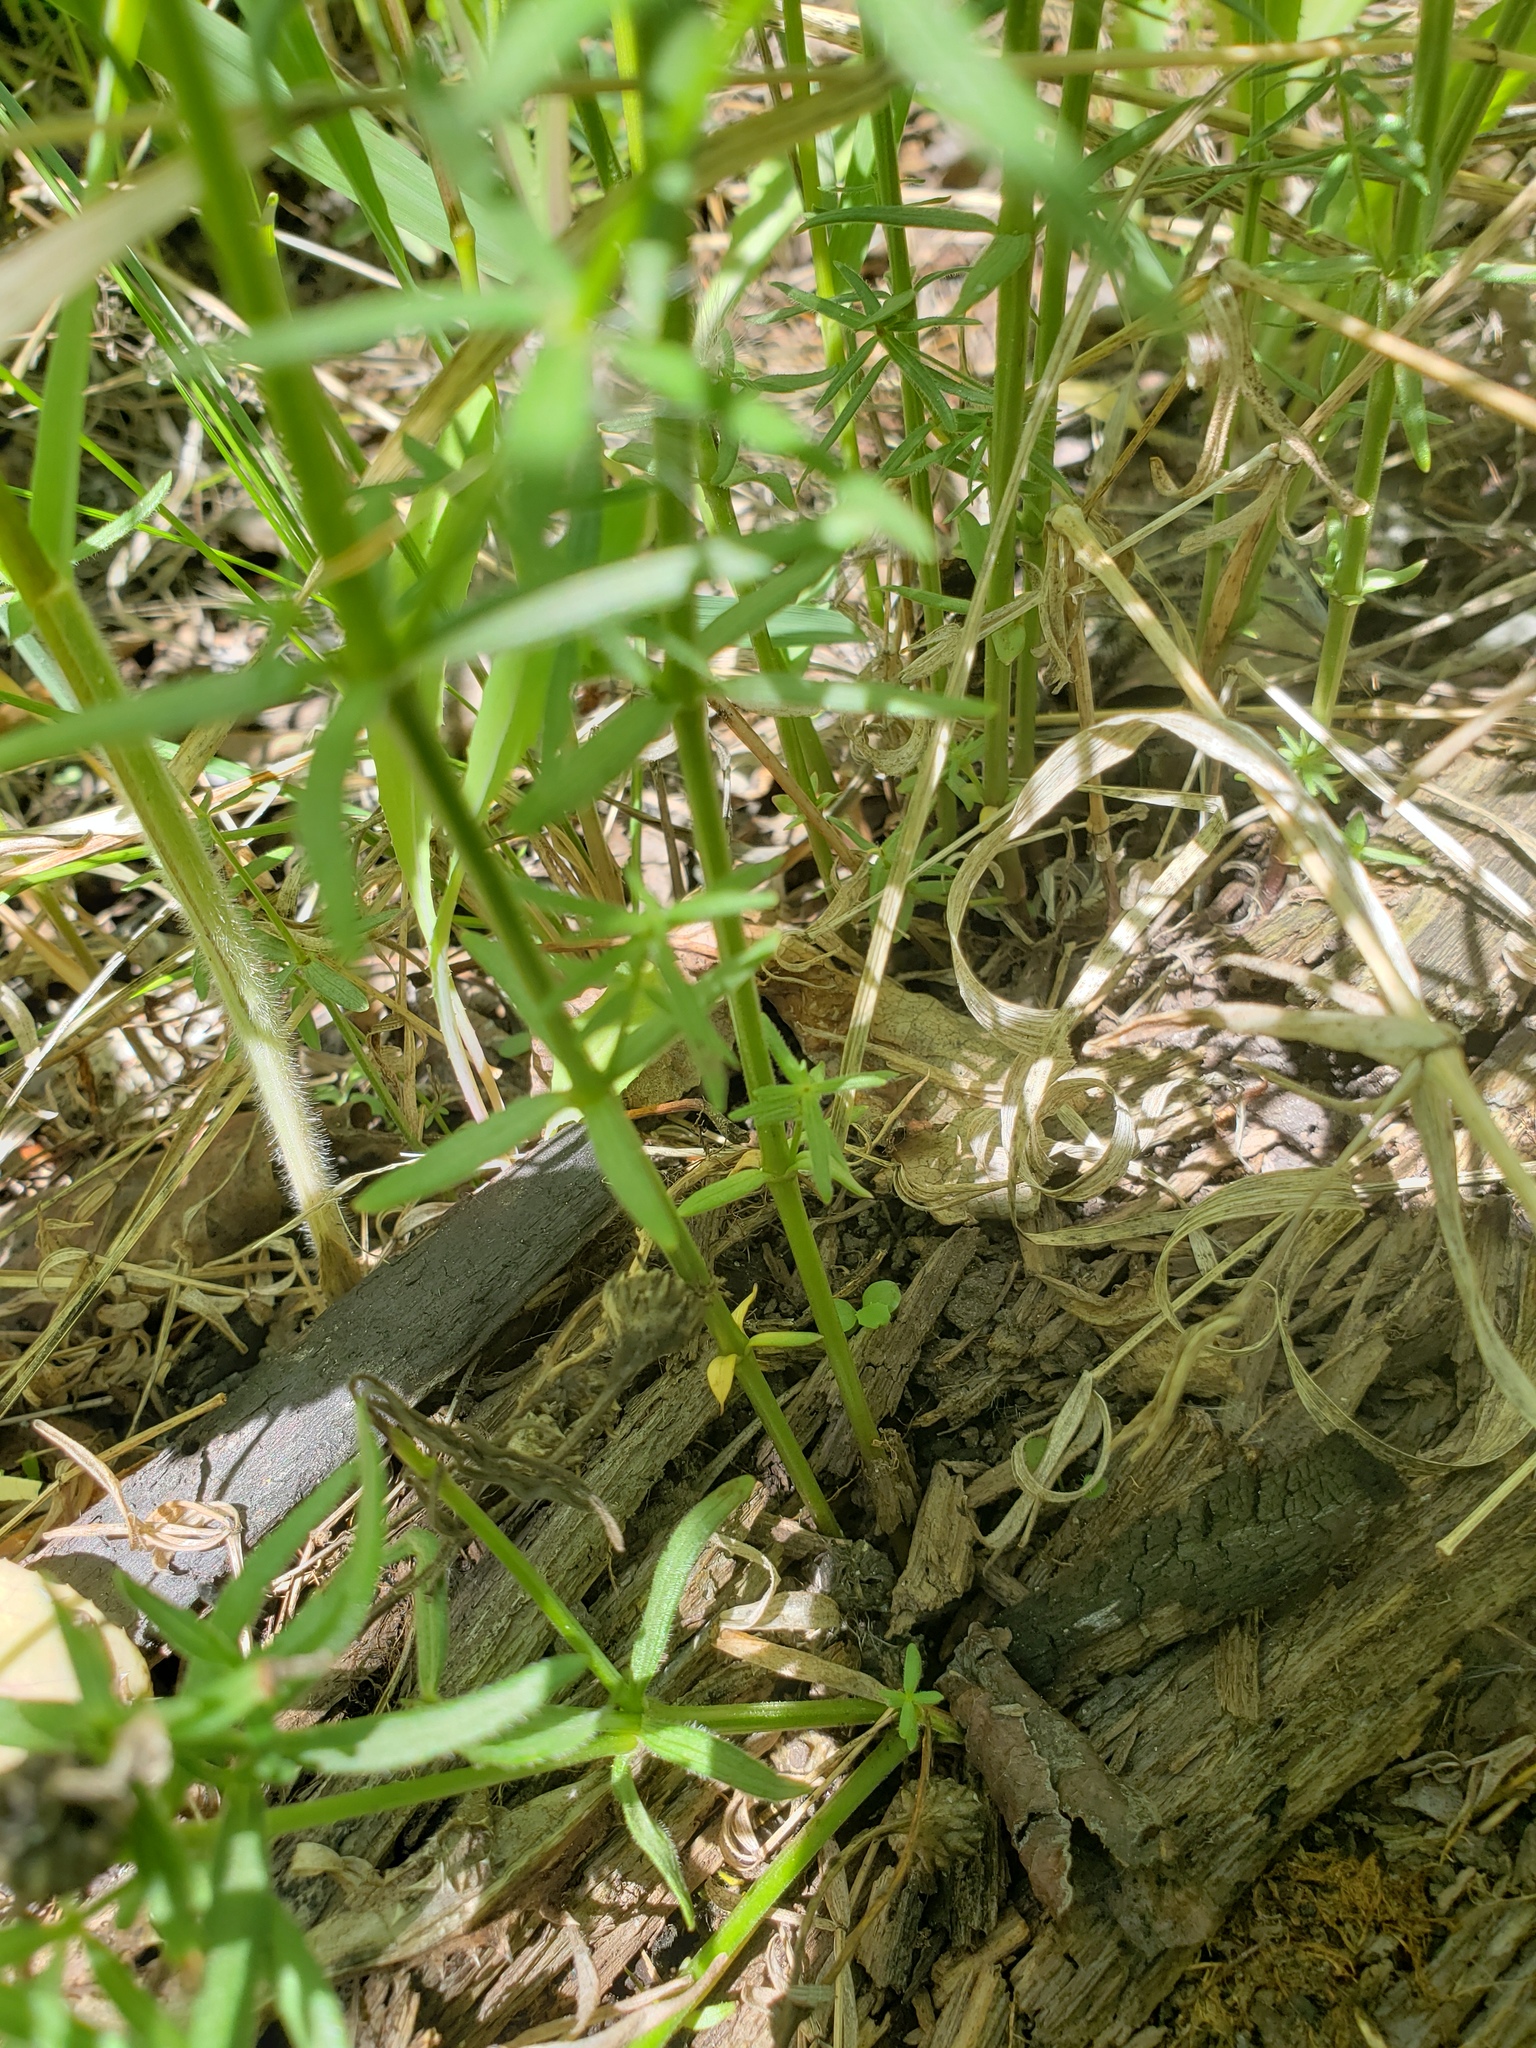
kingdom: Plantae
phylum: Tracheophyta
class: Magnoliopsida
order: Gentianales
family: Rubiaceae
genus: Galium
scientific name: Galium boreale
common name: Northern bedstraw
